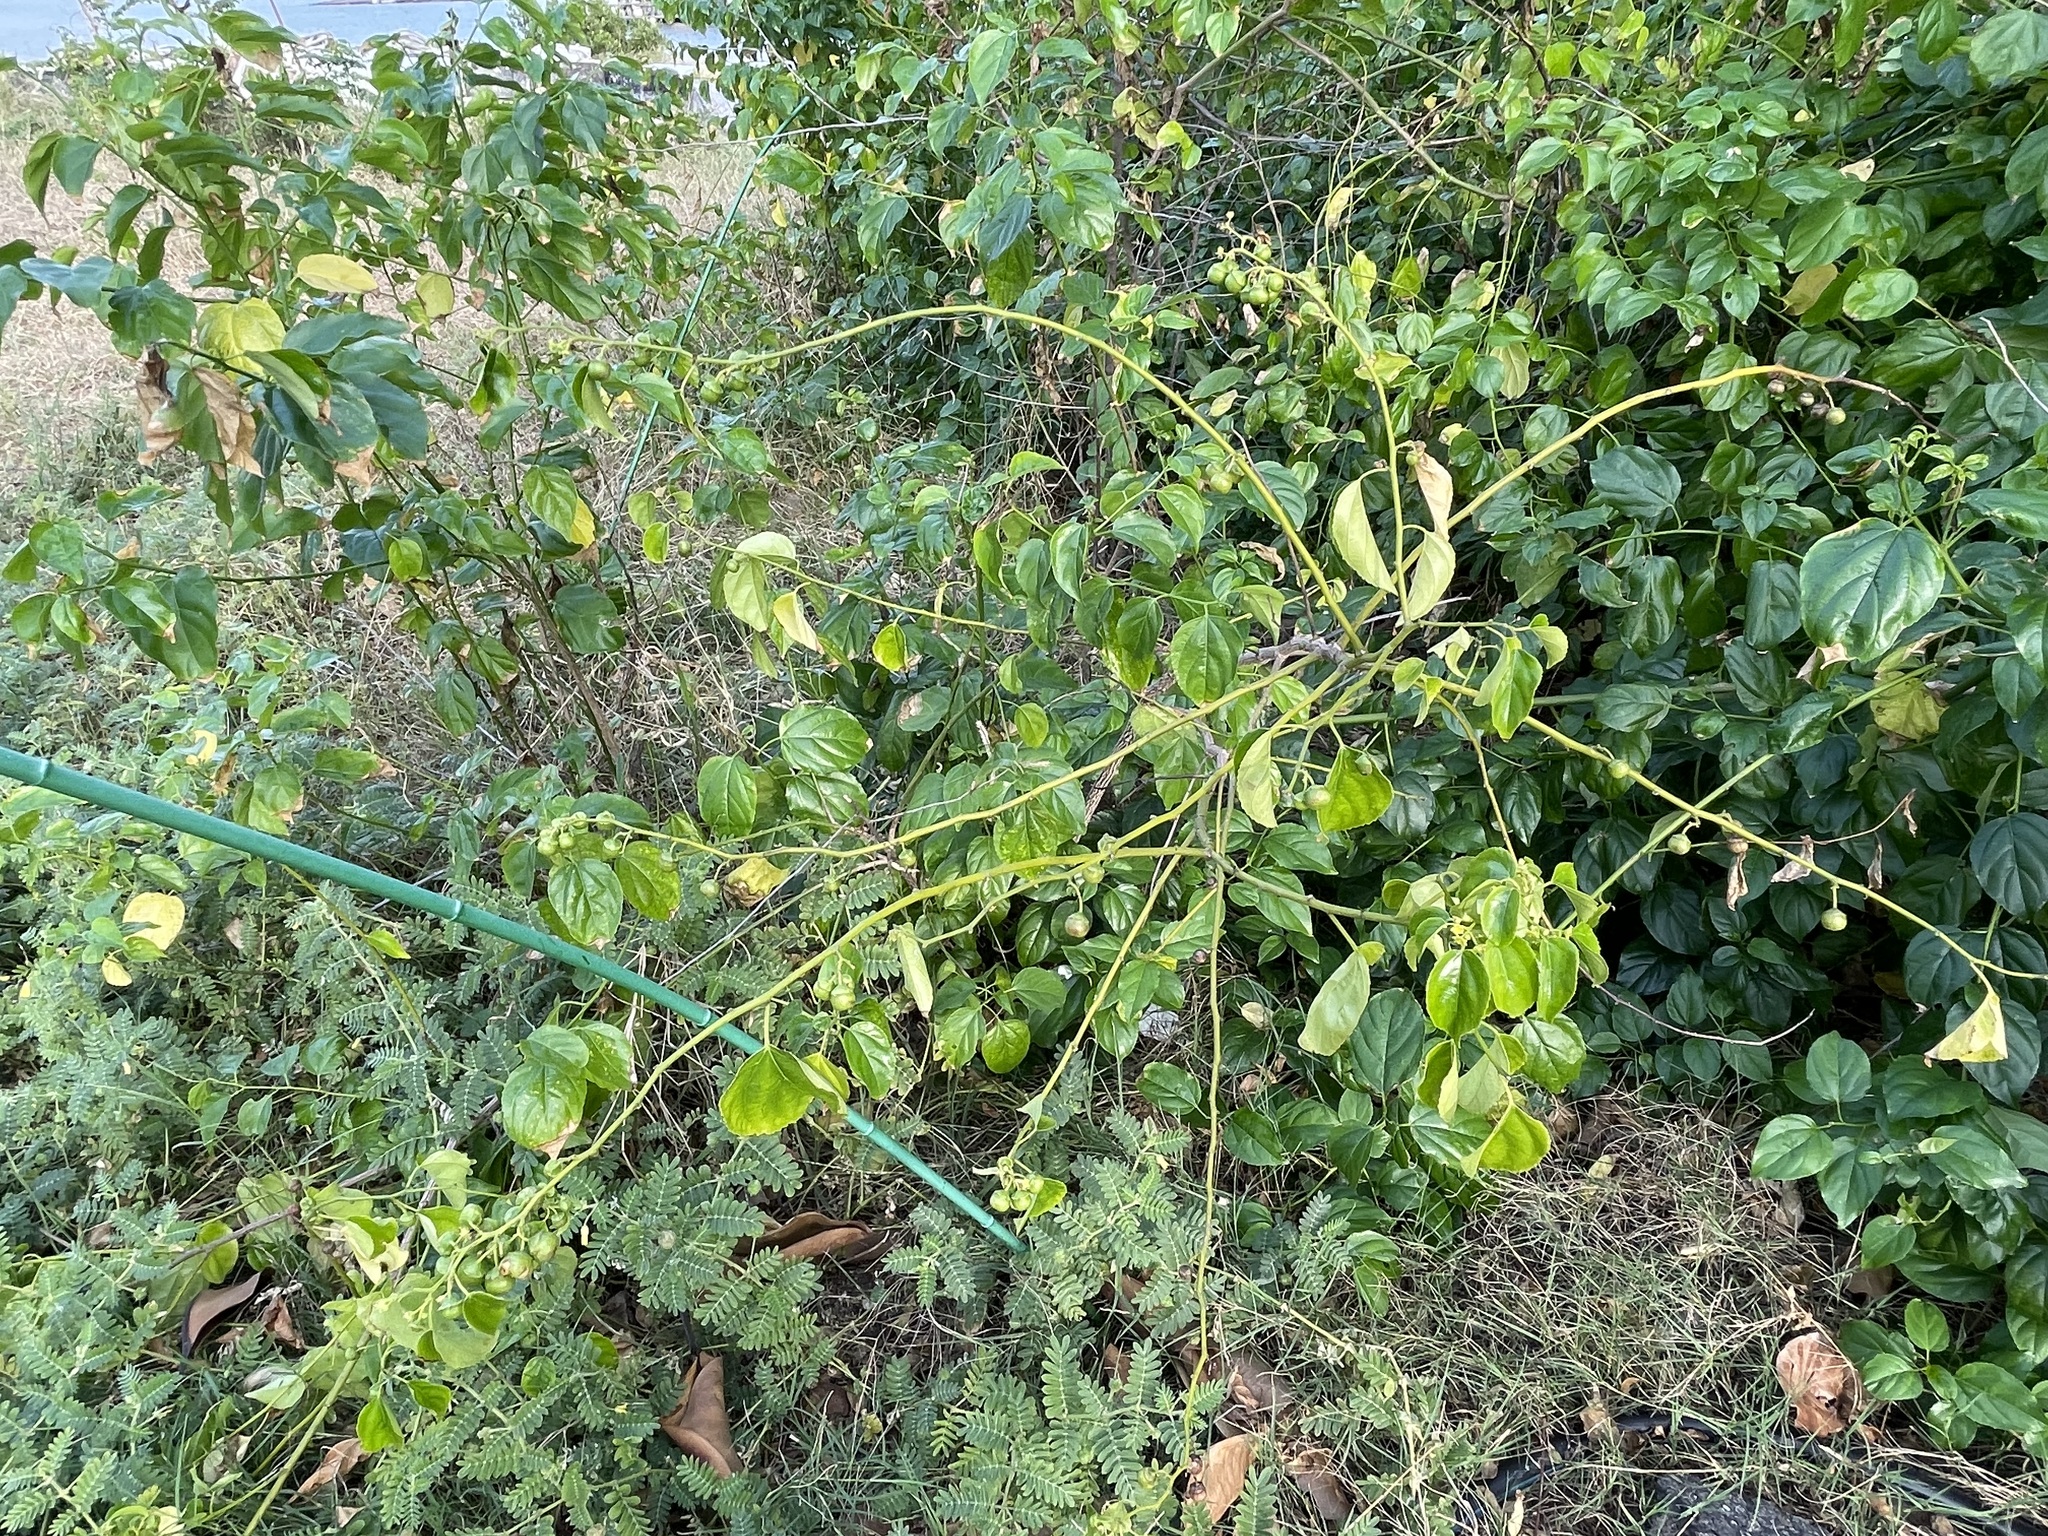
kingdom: Plantae
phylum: Tracheophyta
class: Magnoliopsida
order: Rosales
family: Rhamnaceae
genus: Colubrina
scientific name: Colubrina asiatica
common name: Asian nakedwood
